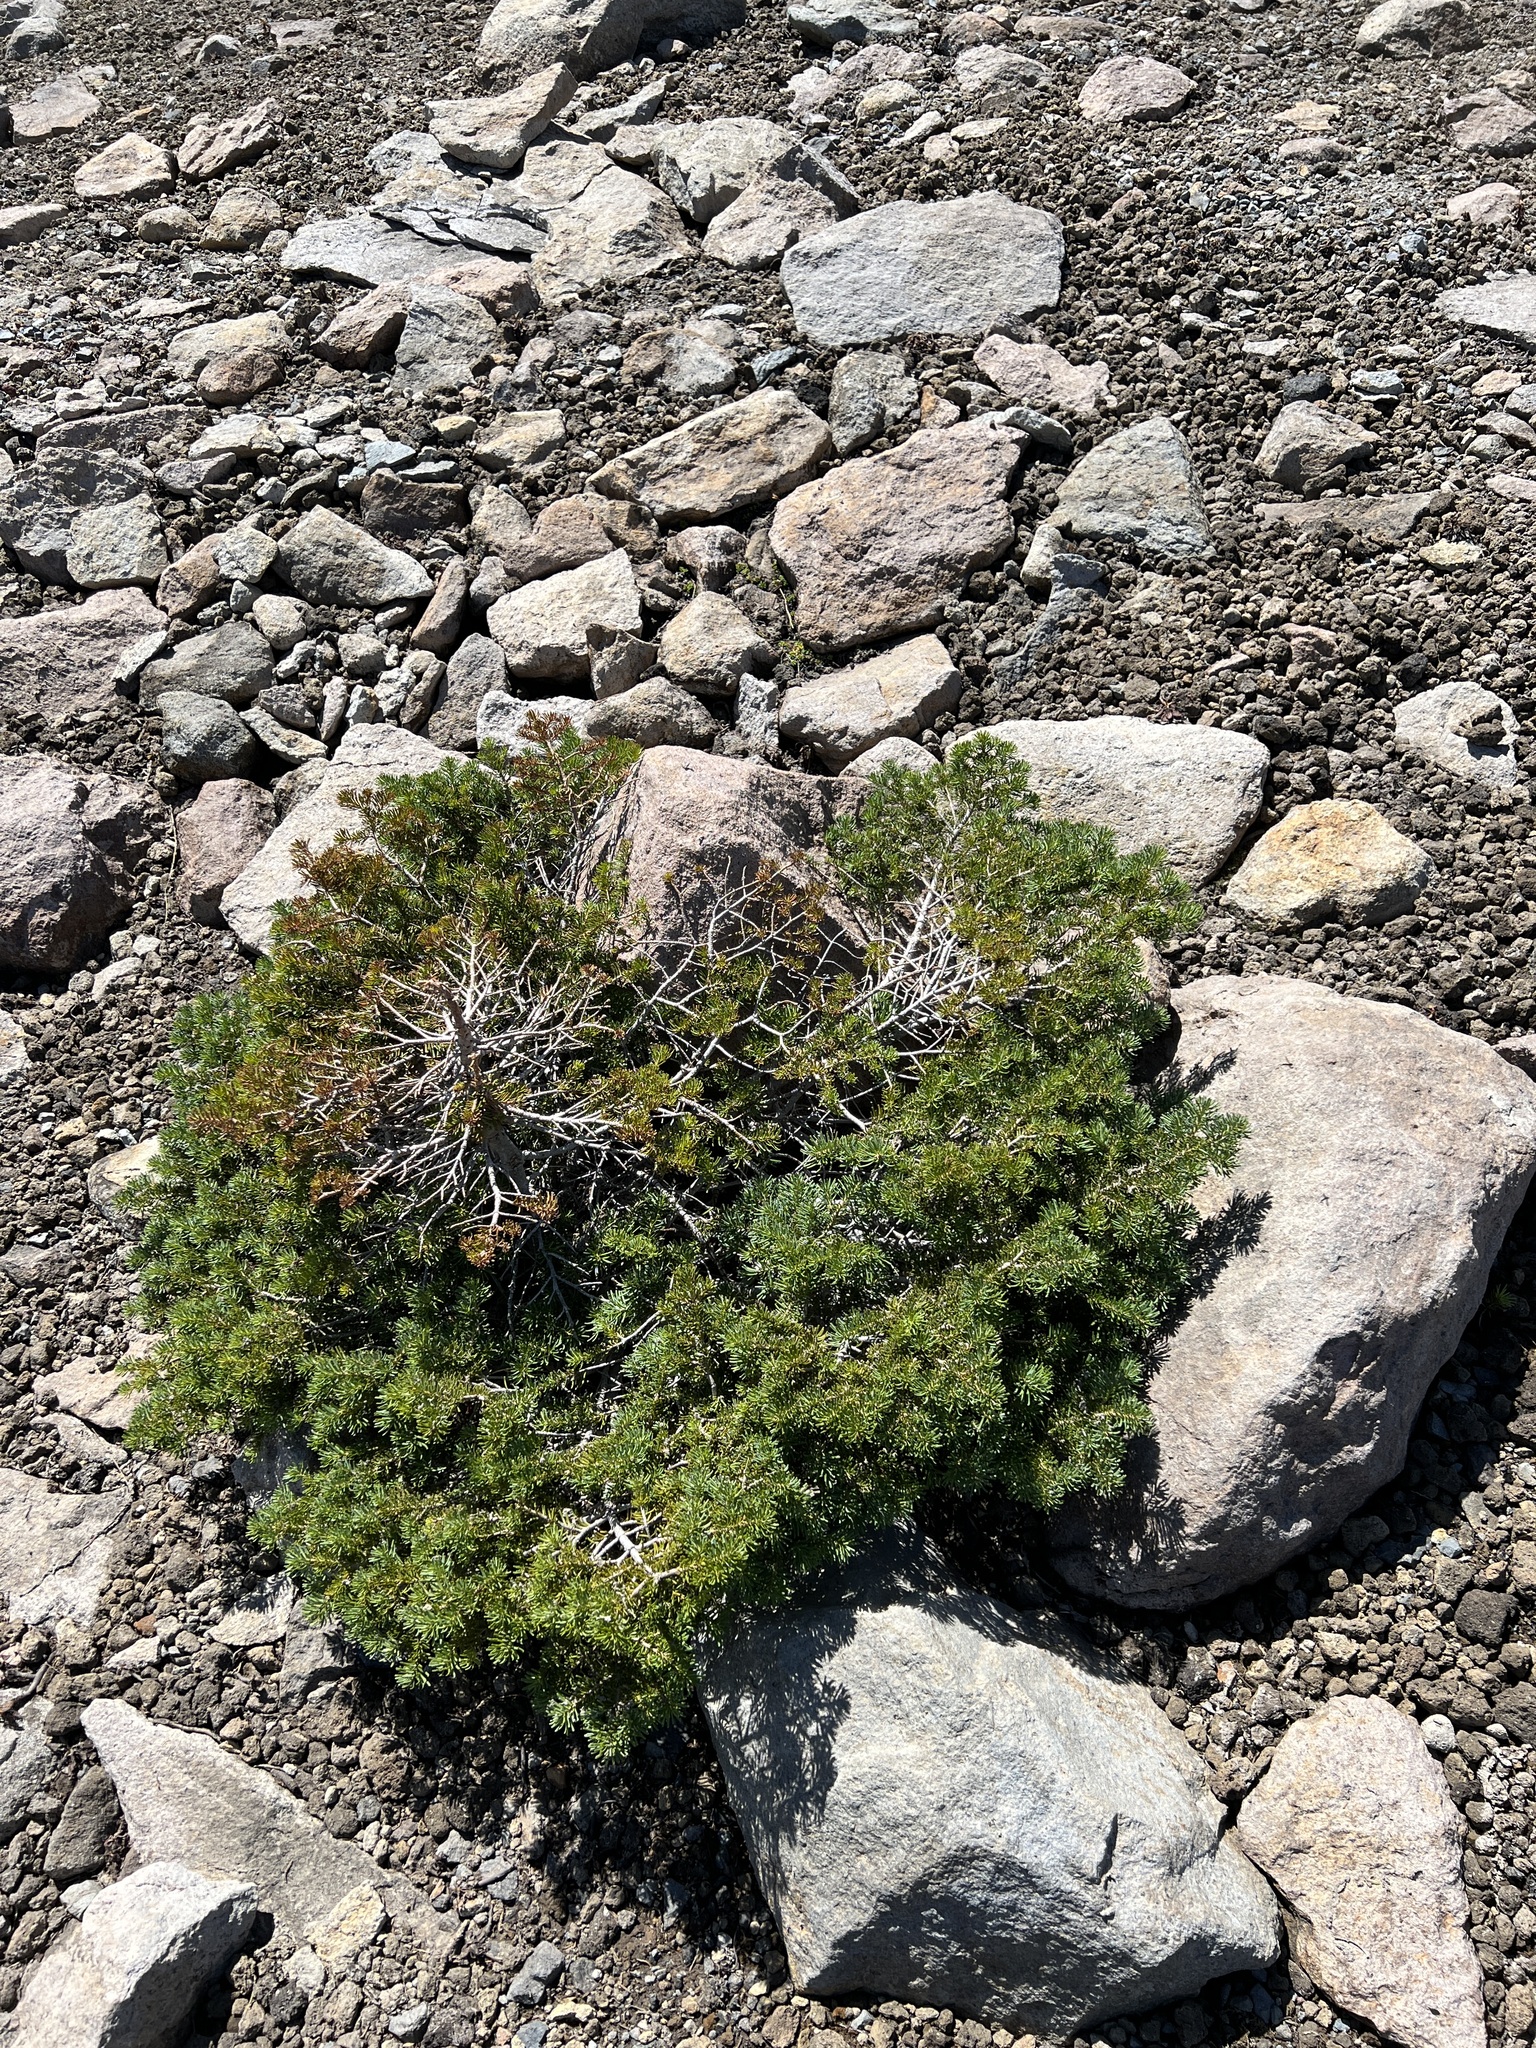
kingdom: Plantae
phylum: Tracheophyta
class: Pinopsida
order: Pinales
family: Pinaceae
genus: Abies
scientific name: Abies lasiocarpa
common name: Subalpine fir
